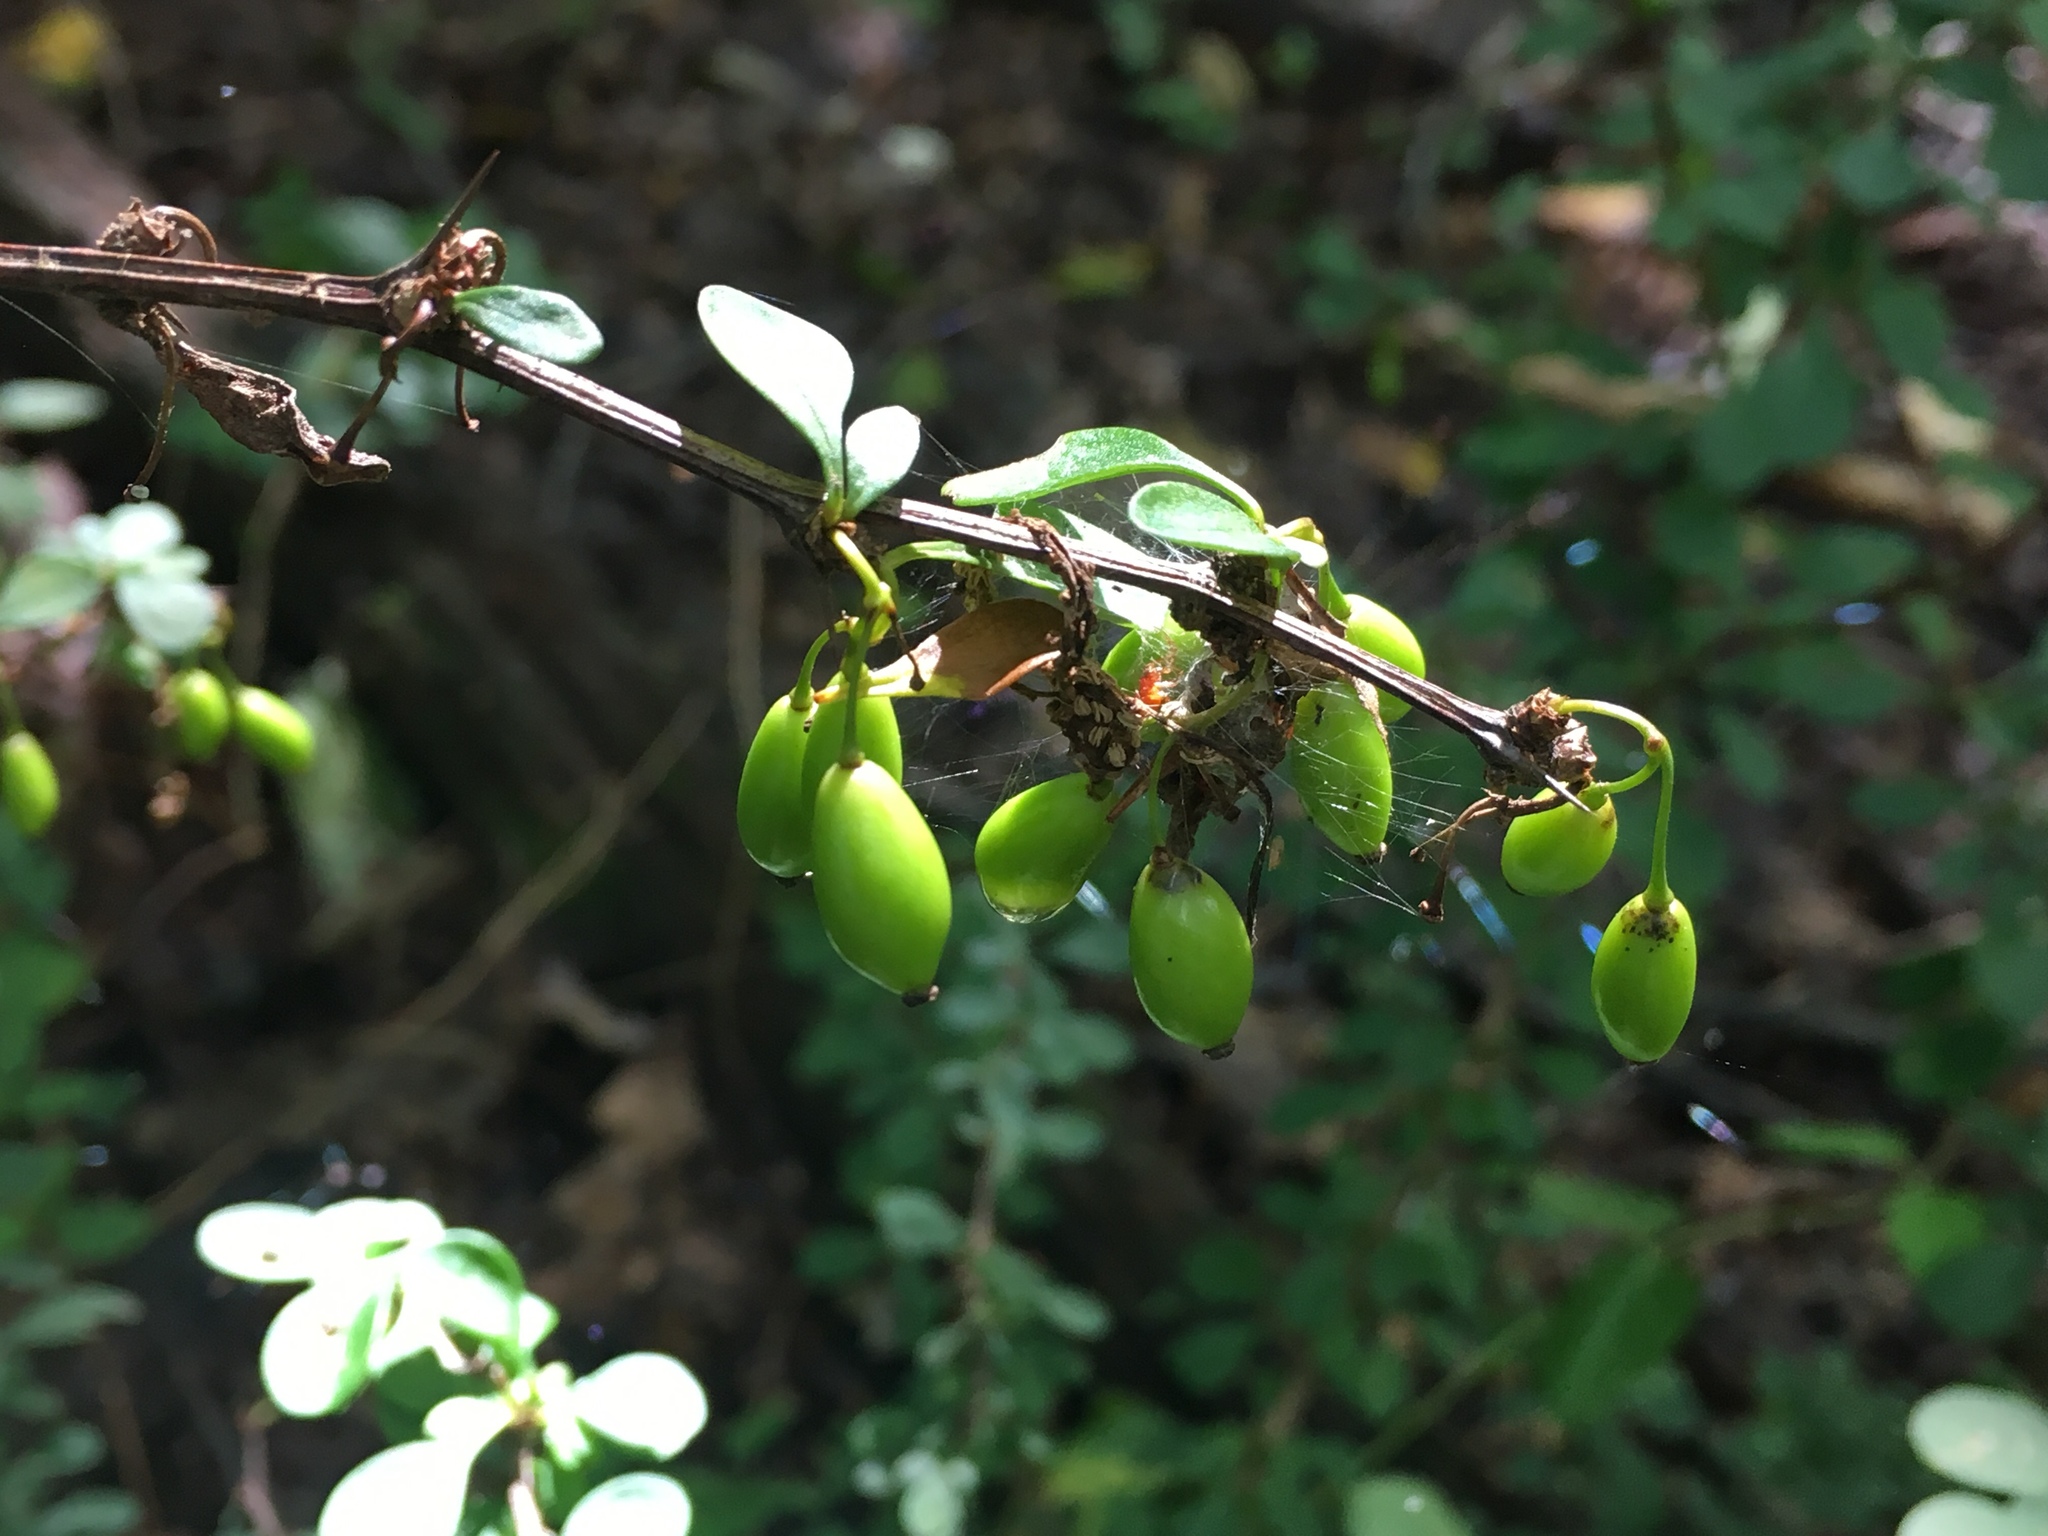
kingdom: Plantae
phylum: Tracheophyta
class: Magnoliopsida
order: Ranunculales
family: Berberidaceae
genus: Berberis
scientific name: Berberis thunbergii
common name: Japanese barberry
